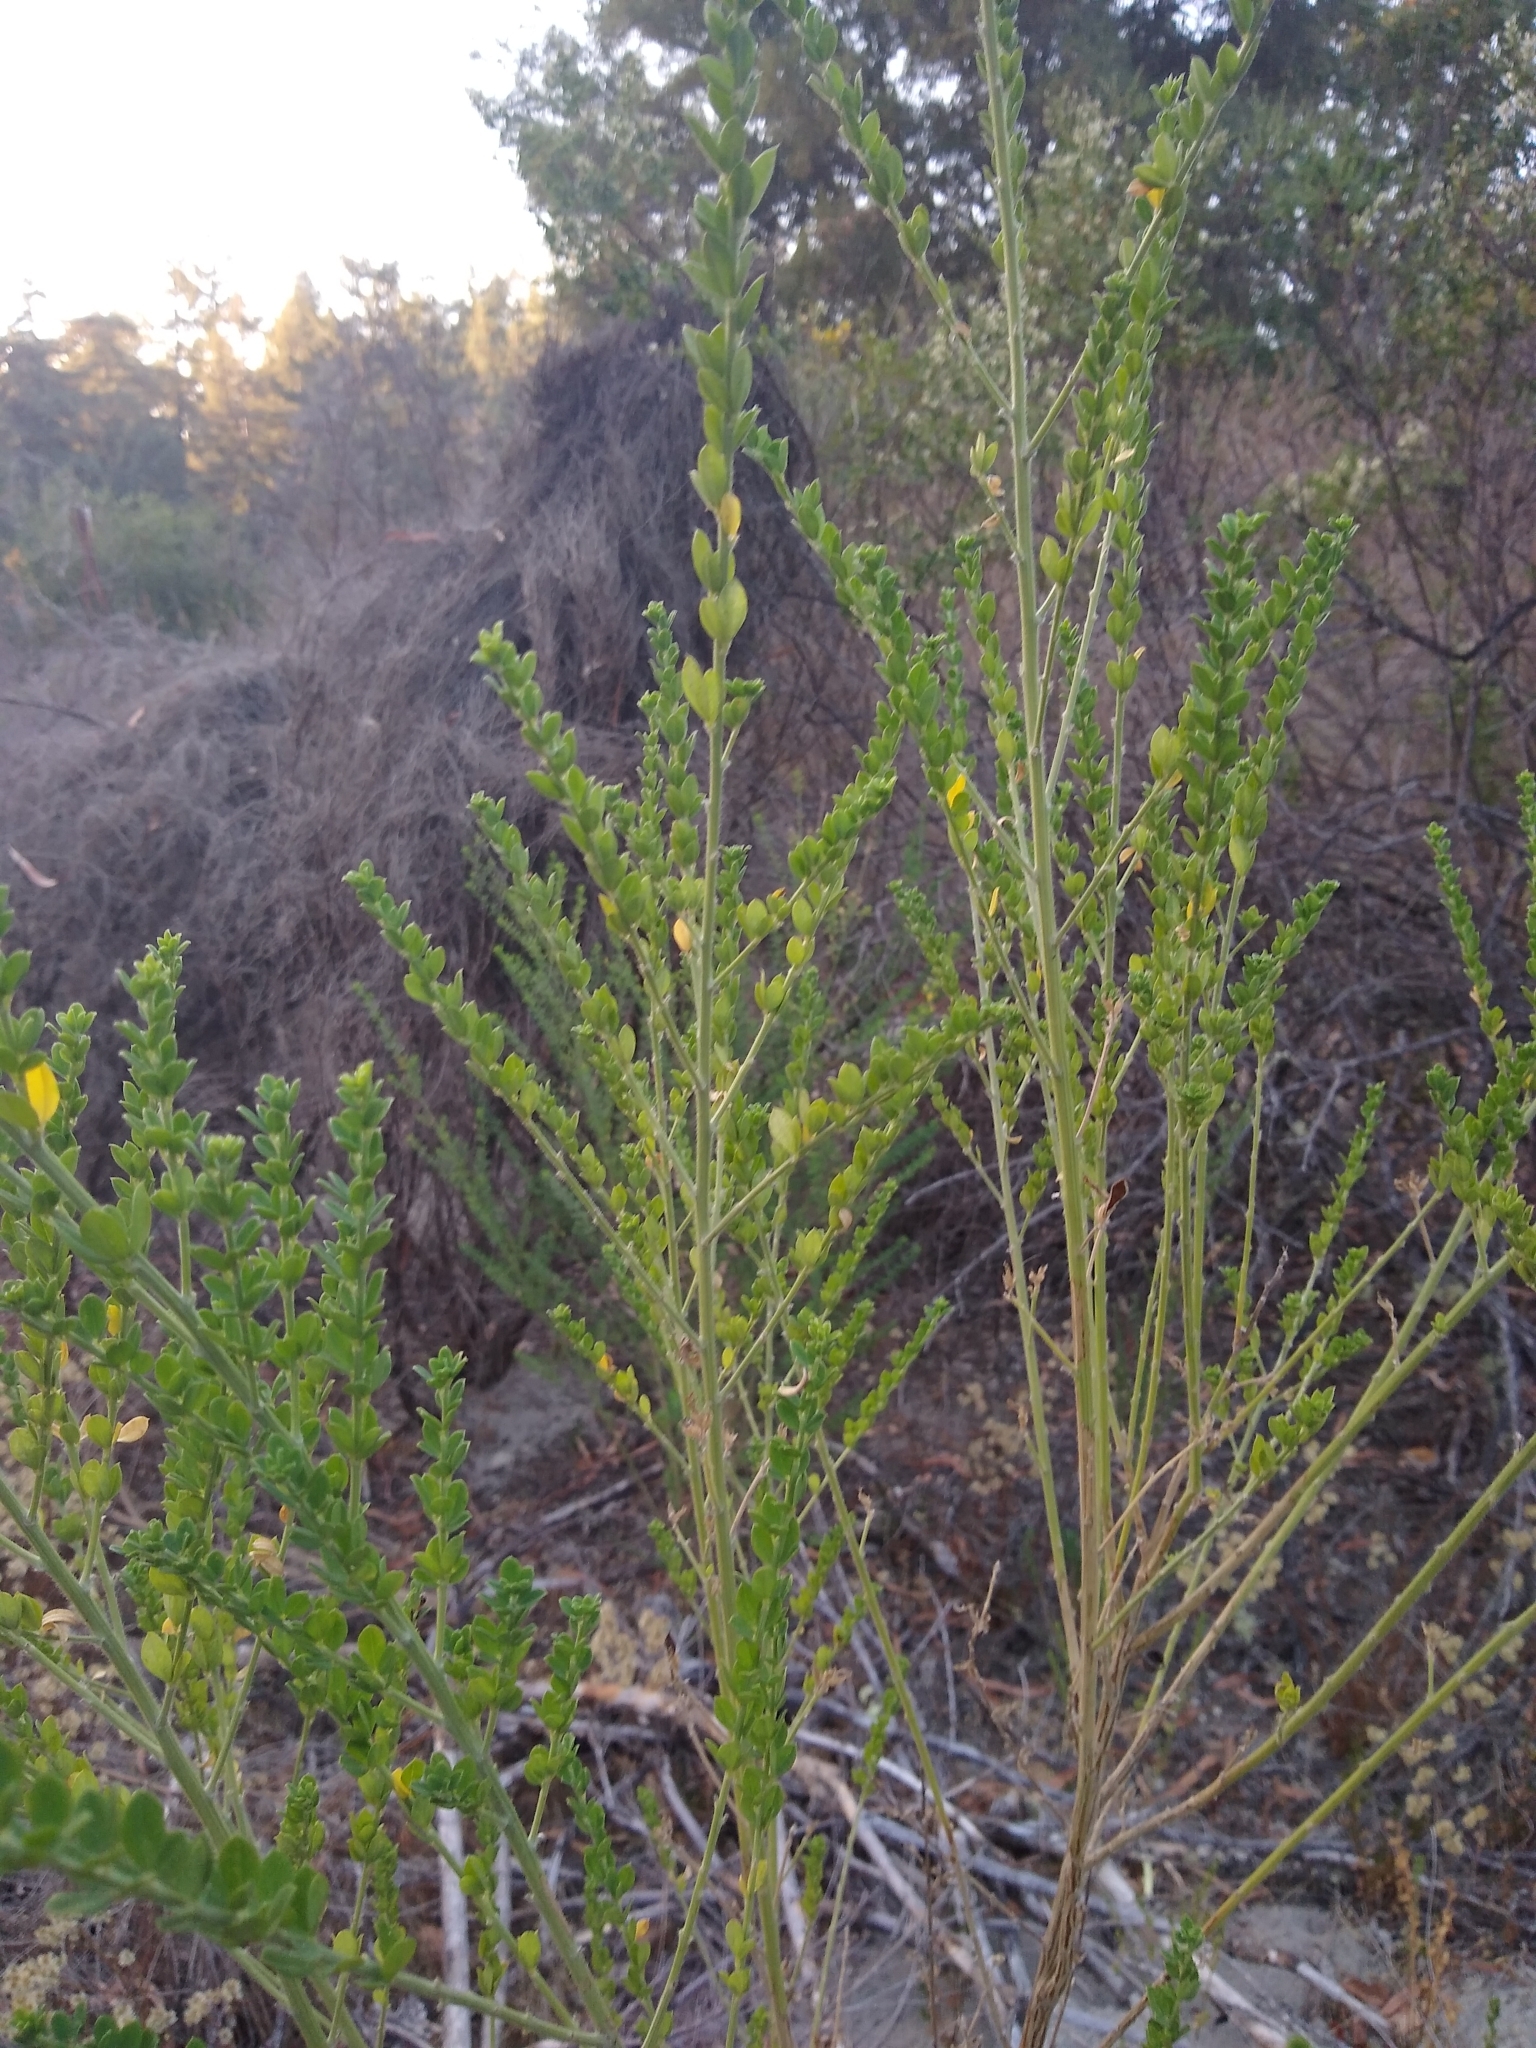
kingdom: Plantae
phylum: Tracheophyta
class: Magnoliopsida
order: Fabales
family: Fabaceae
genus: Genista
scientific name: Genista monspessulana
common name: Montpellier broom
